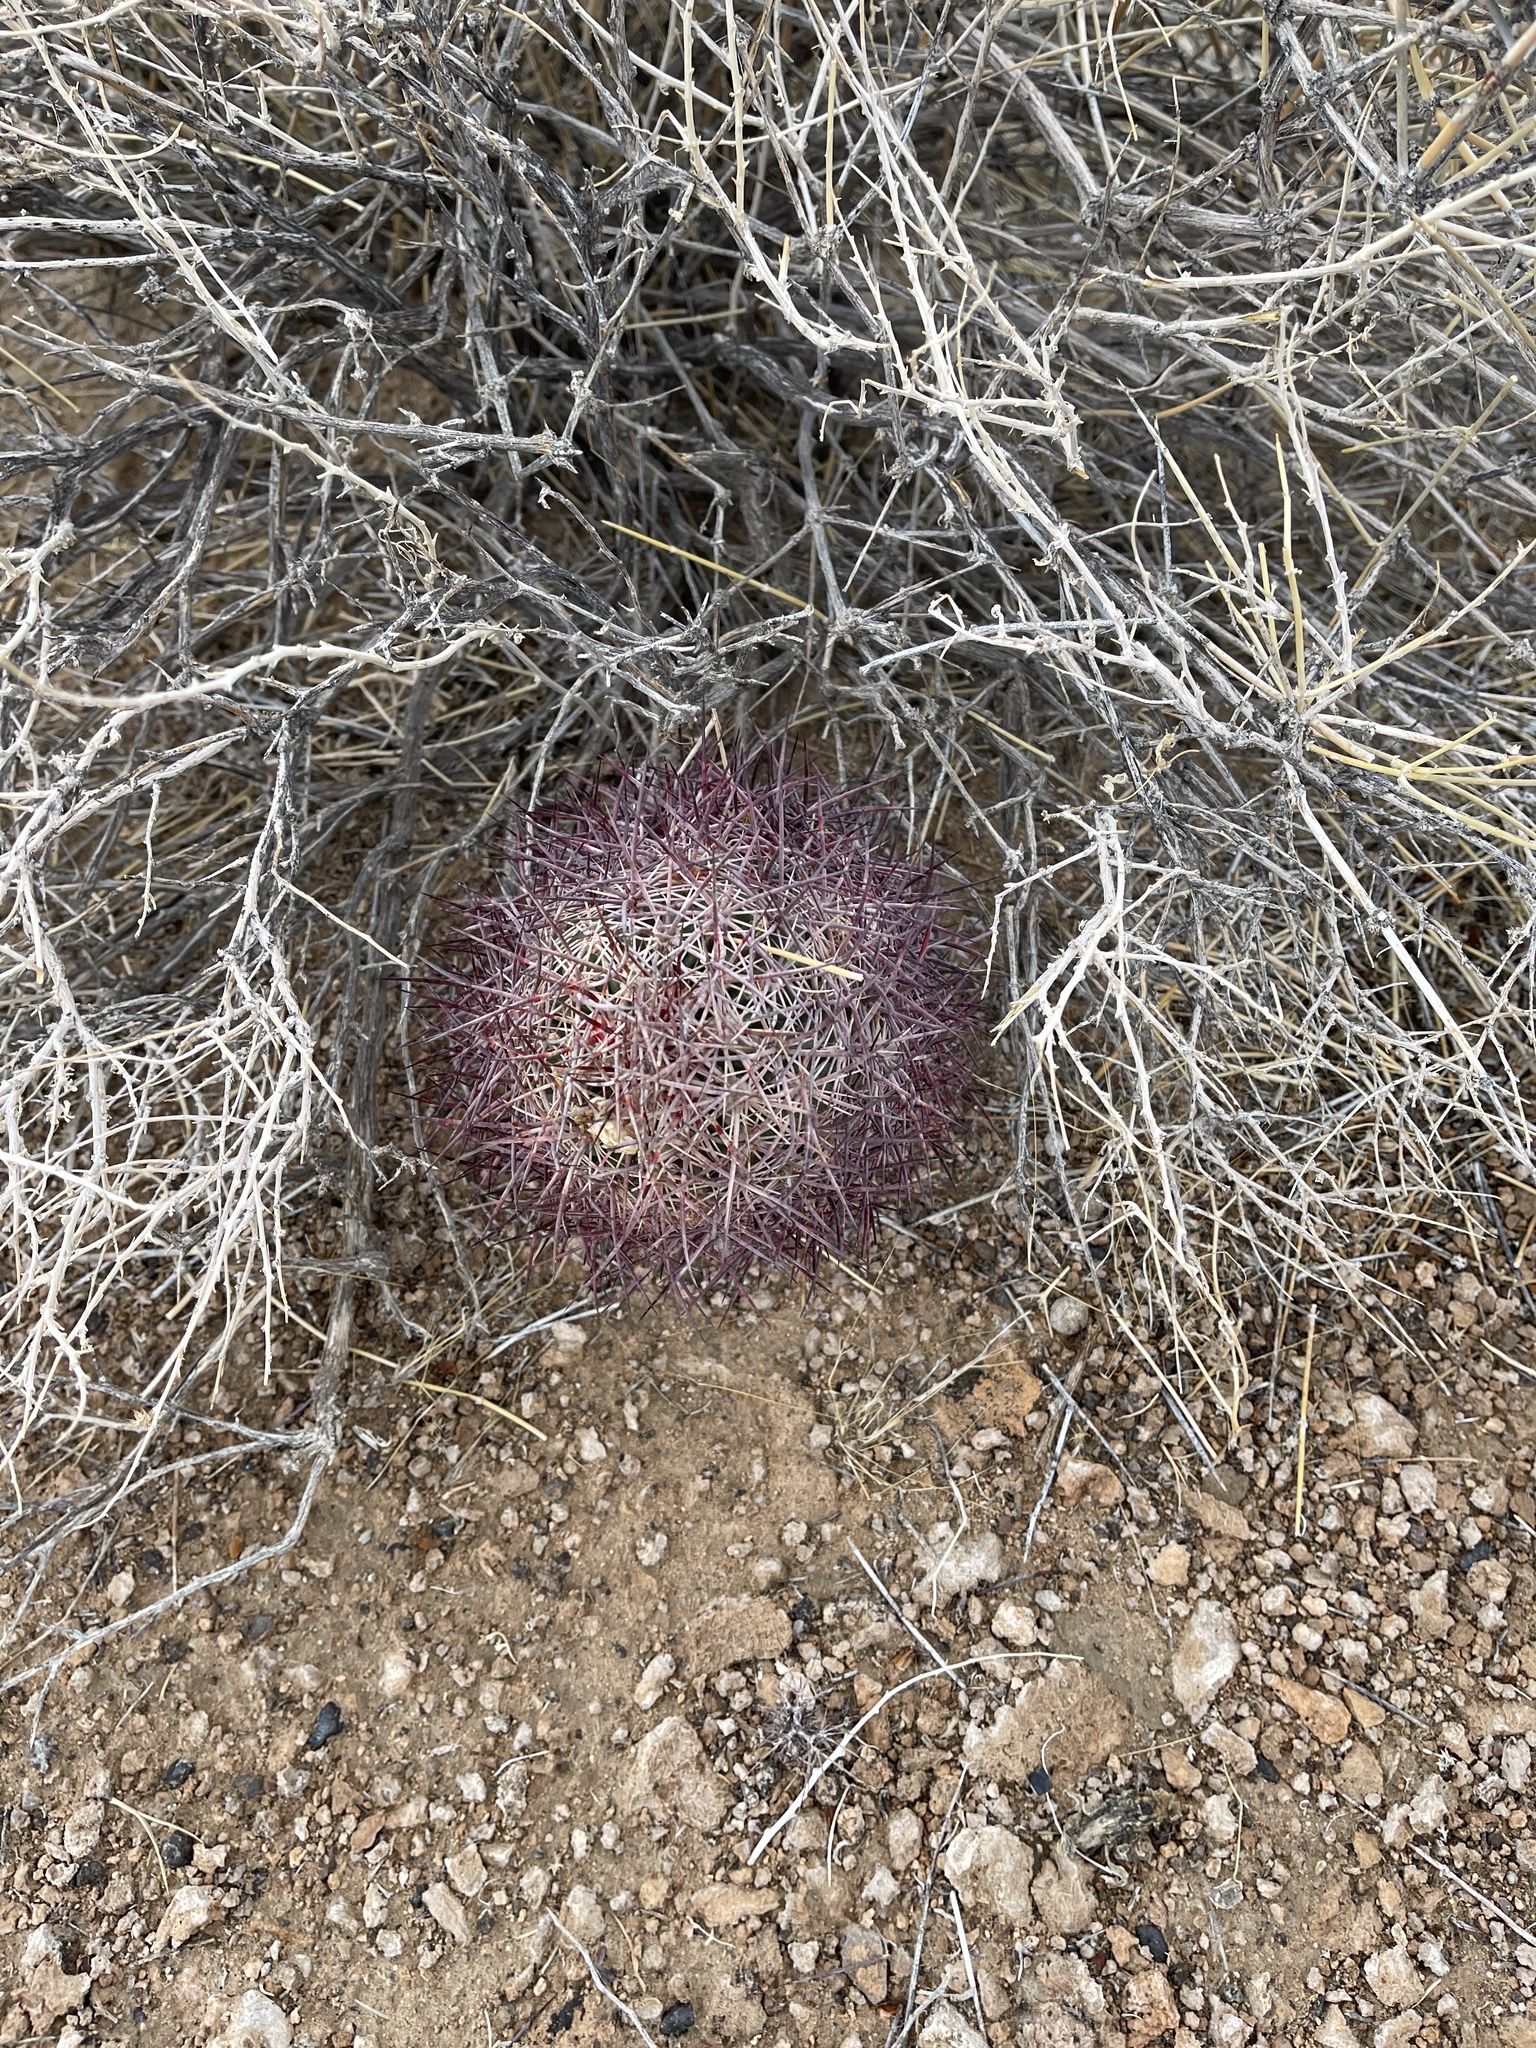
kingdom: Plantae
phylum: Tracheophyta
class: Magnoliopsida
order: Caryophyllales
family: Cactaceae
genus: Sclerocactus
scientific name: Sclerocactus johnsonii
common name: Eight-spine fishhook cactus
